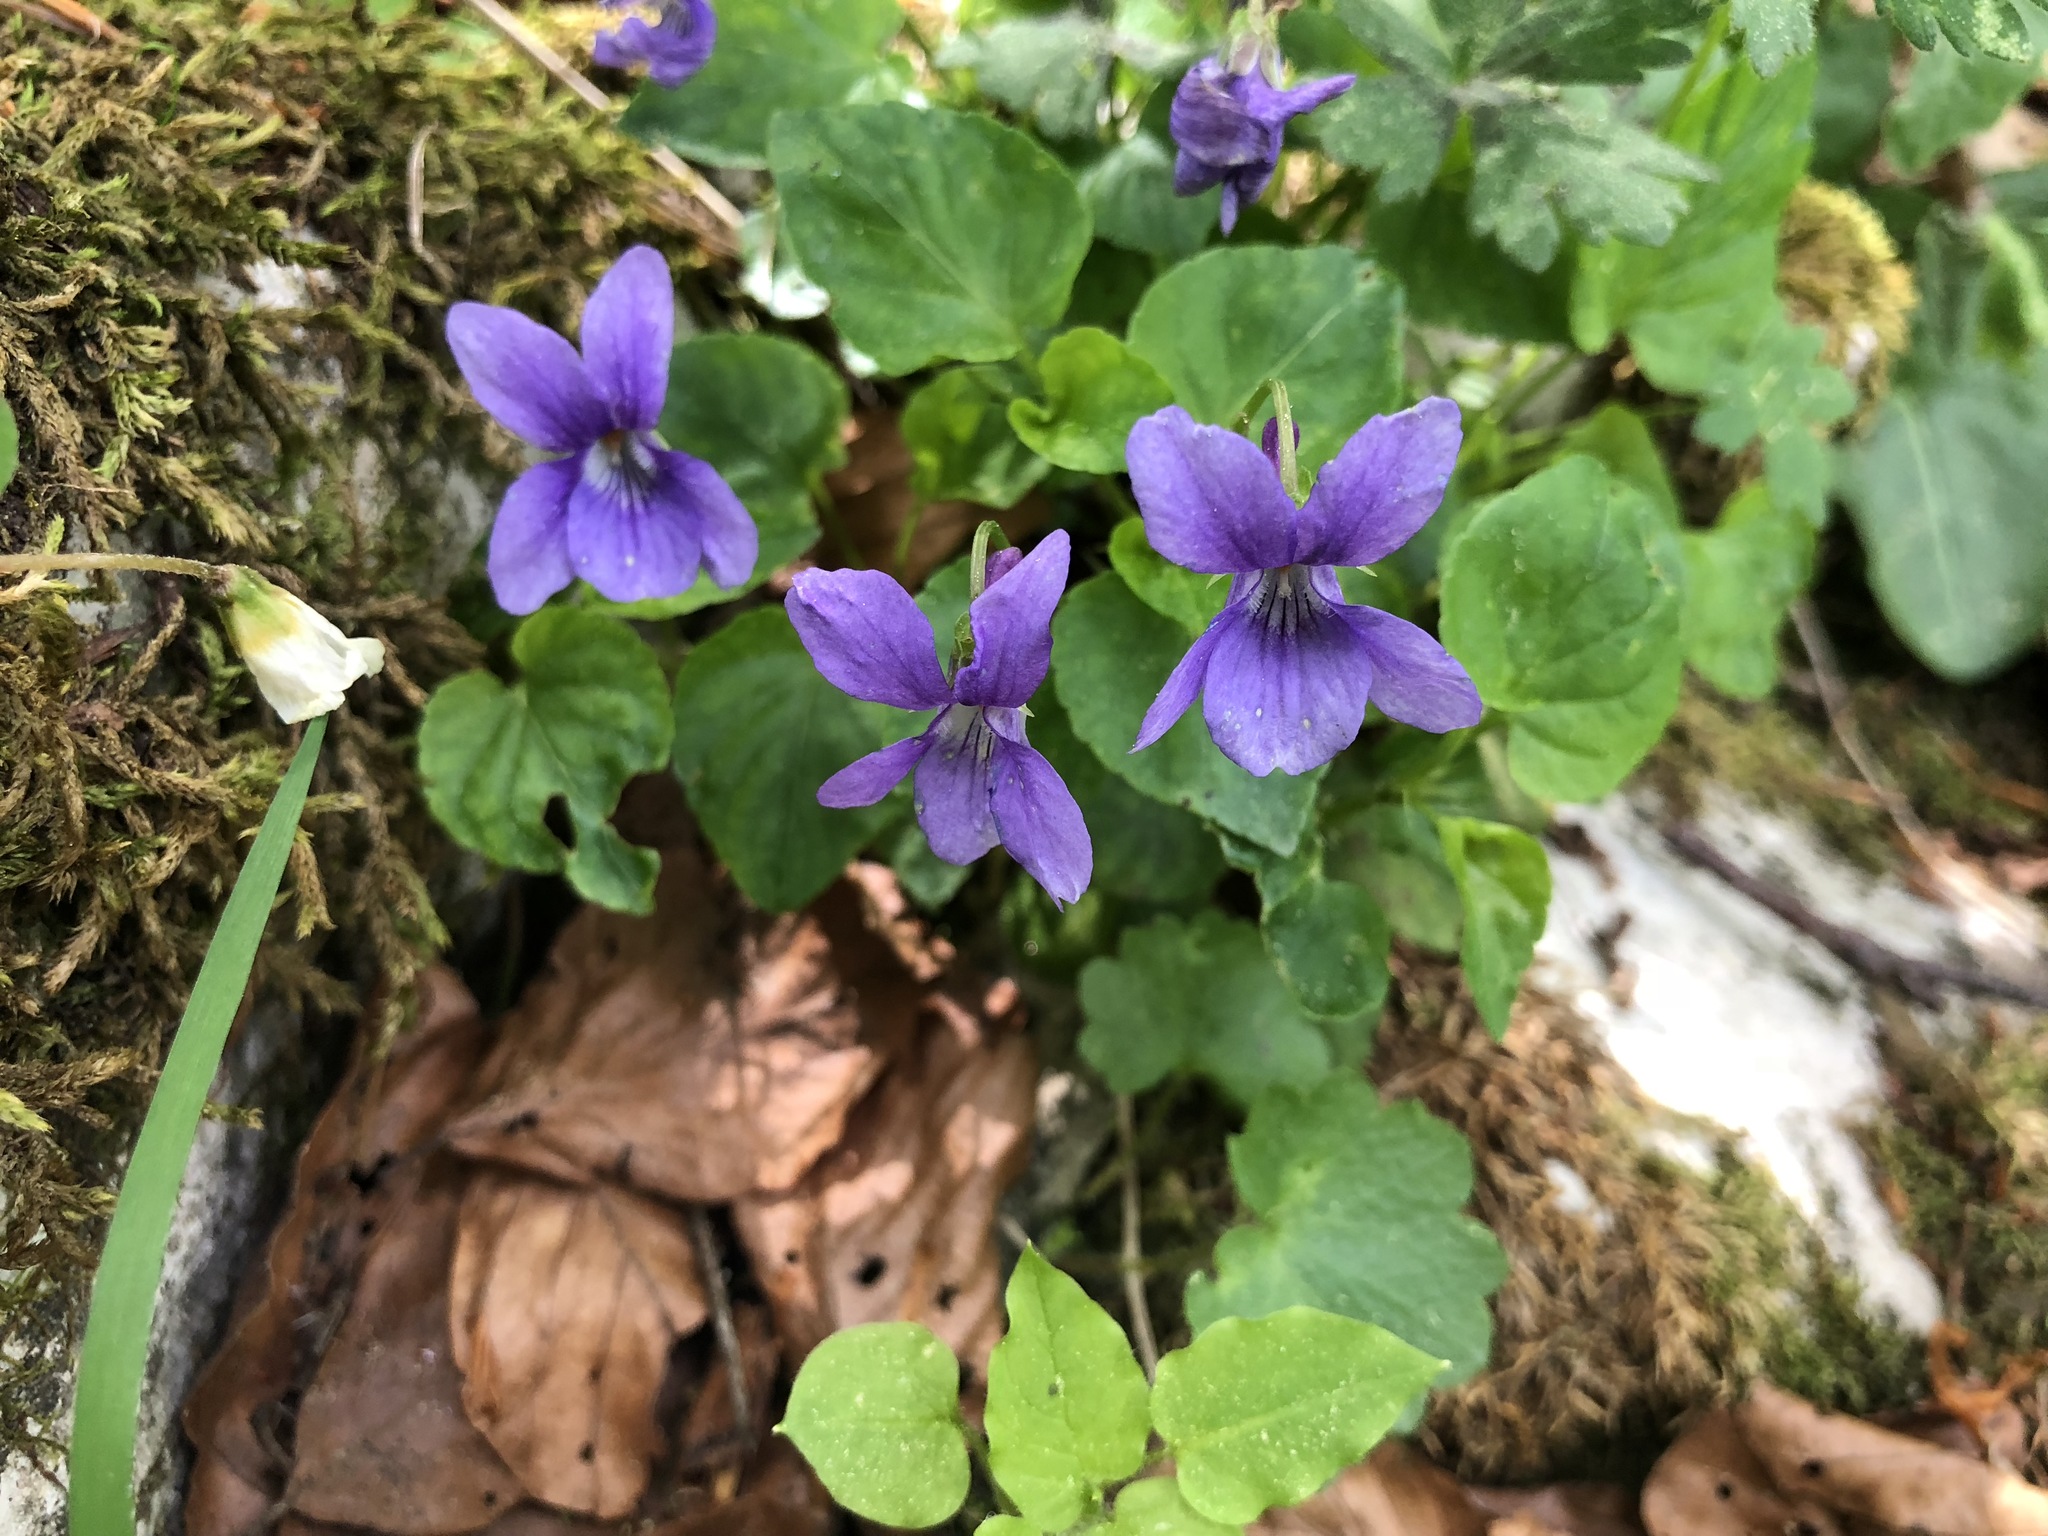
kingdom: Plantae
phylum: Tracheophyta
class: Magnoliopsida
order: Malpighiales
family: Violaceae
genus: Viola
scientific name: Viola reichenbachiana
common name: Early dog-violet
